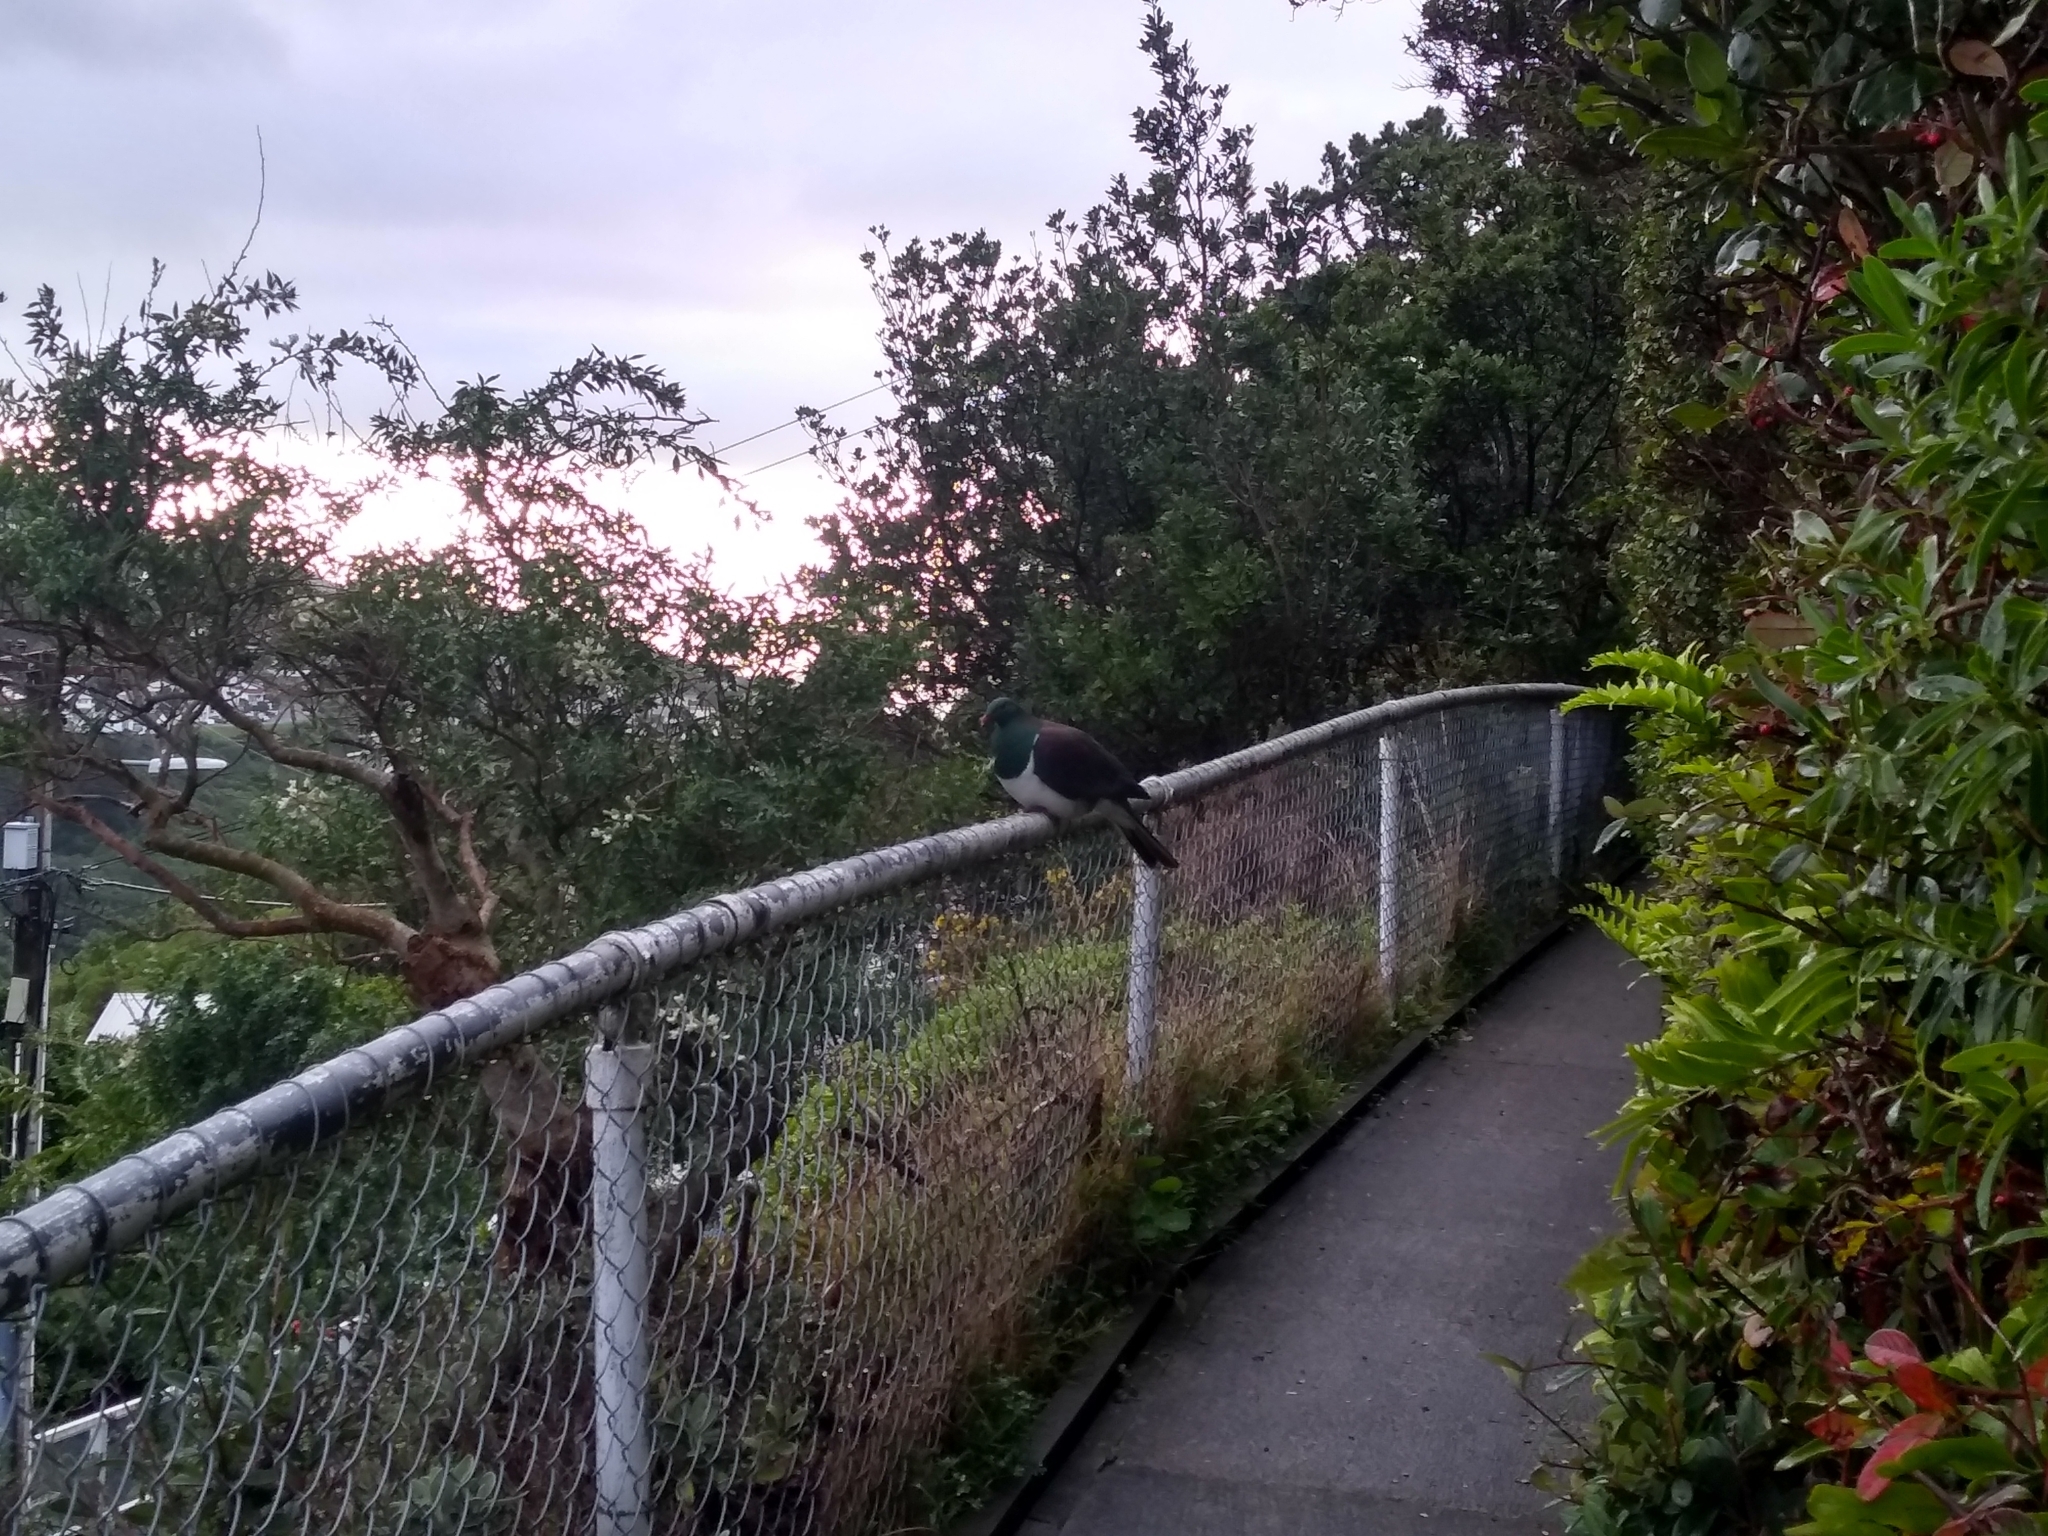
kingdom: Animalia
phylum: Chordata
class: Aves
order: Columbiformes
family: Columbidae
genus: Hemiphaga
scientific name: Hemiphaga novaeseelandiae
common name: New zealand pigeon
